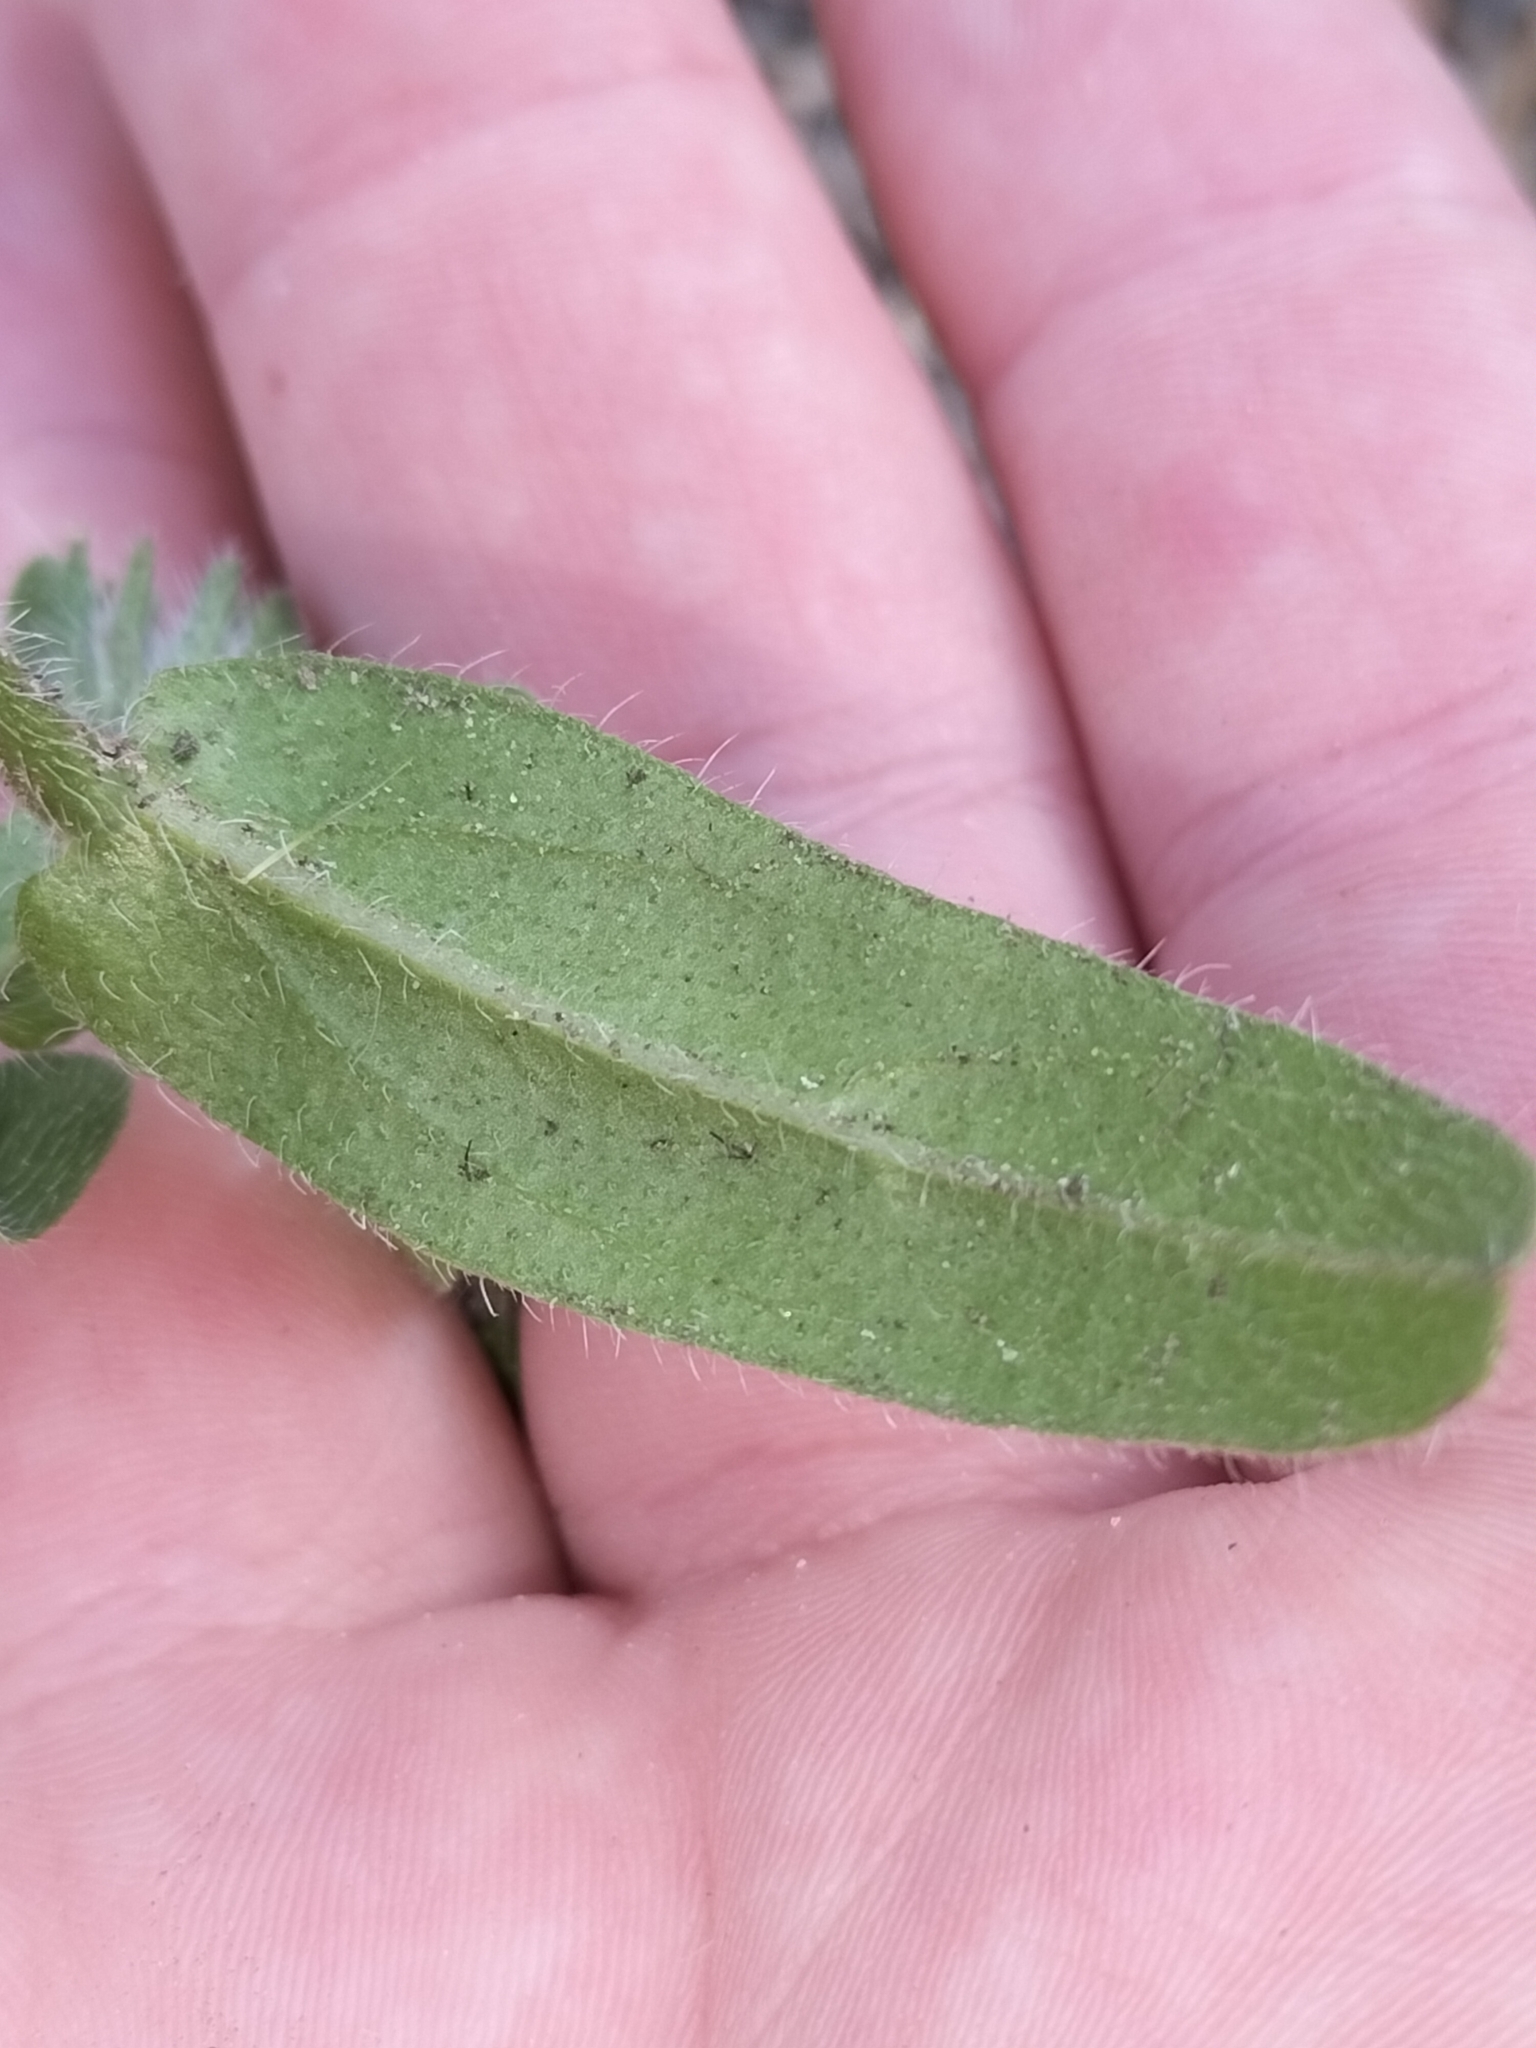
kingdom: Plantae
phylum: Tracheophyta
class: Magnoliopsida
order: Boraginales
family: Boraginaceae
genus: Echium
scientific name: Echium plantagineum
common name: Purple viper's-bugloss
